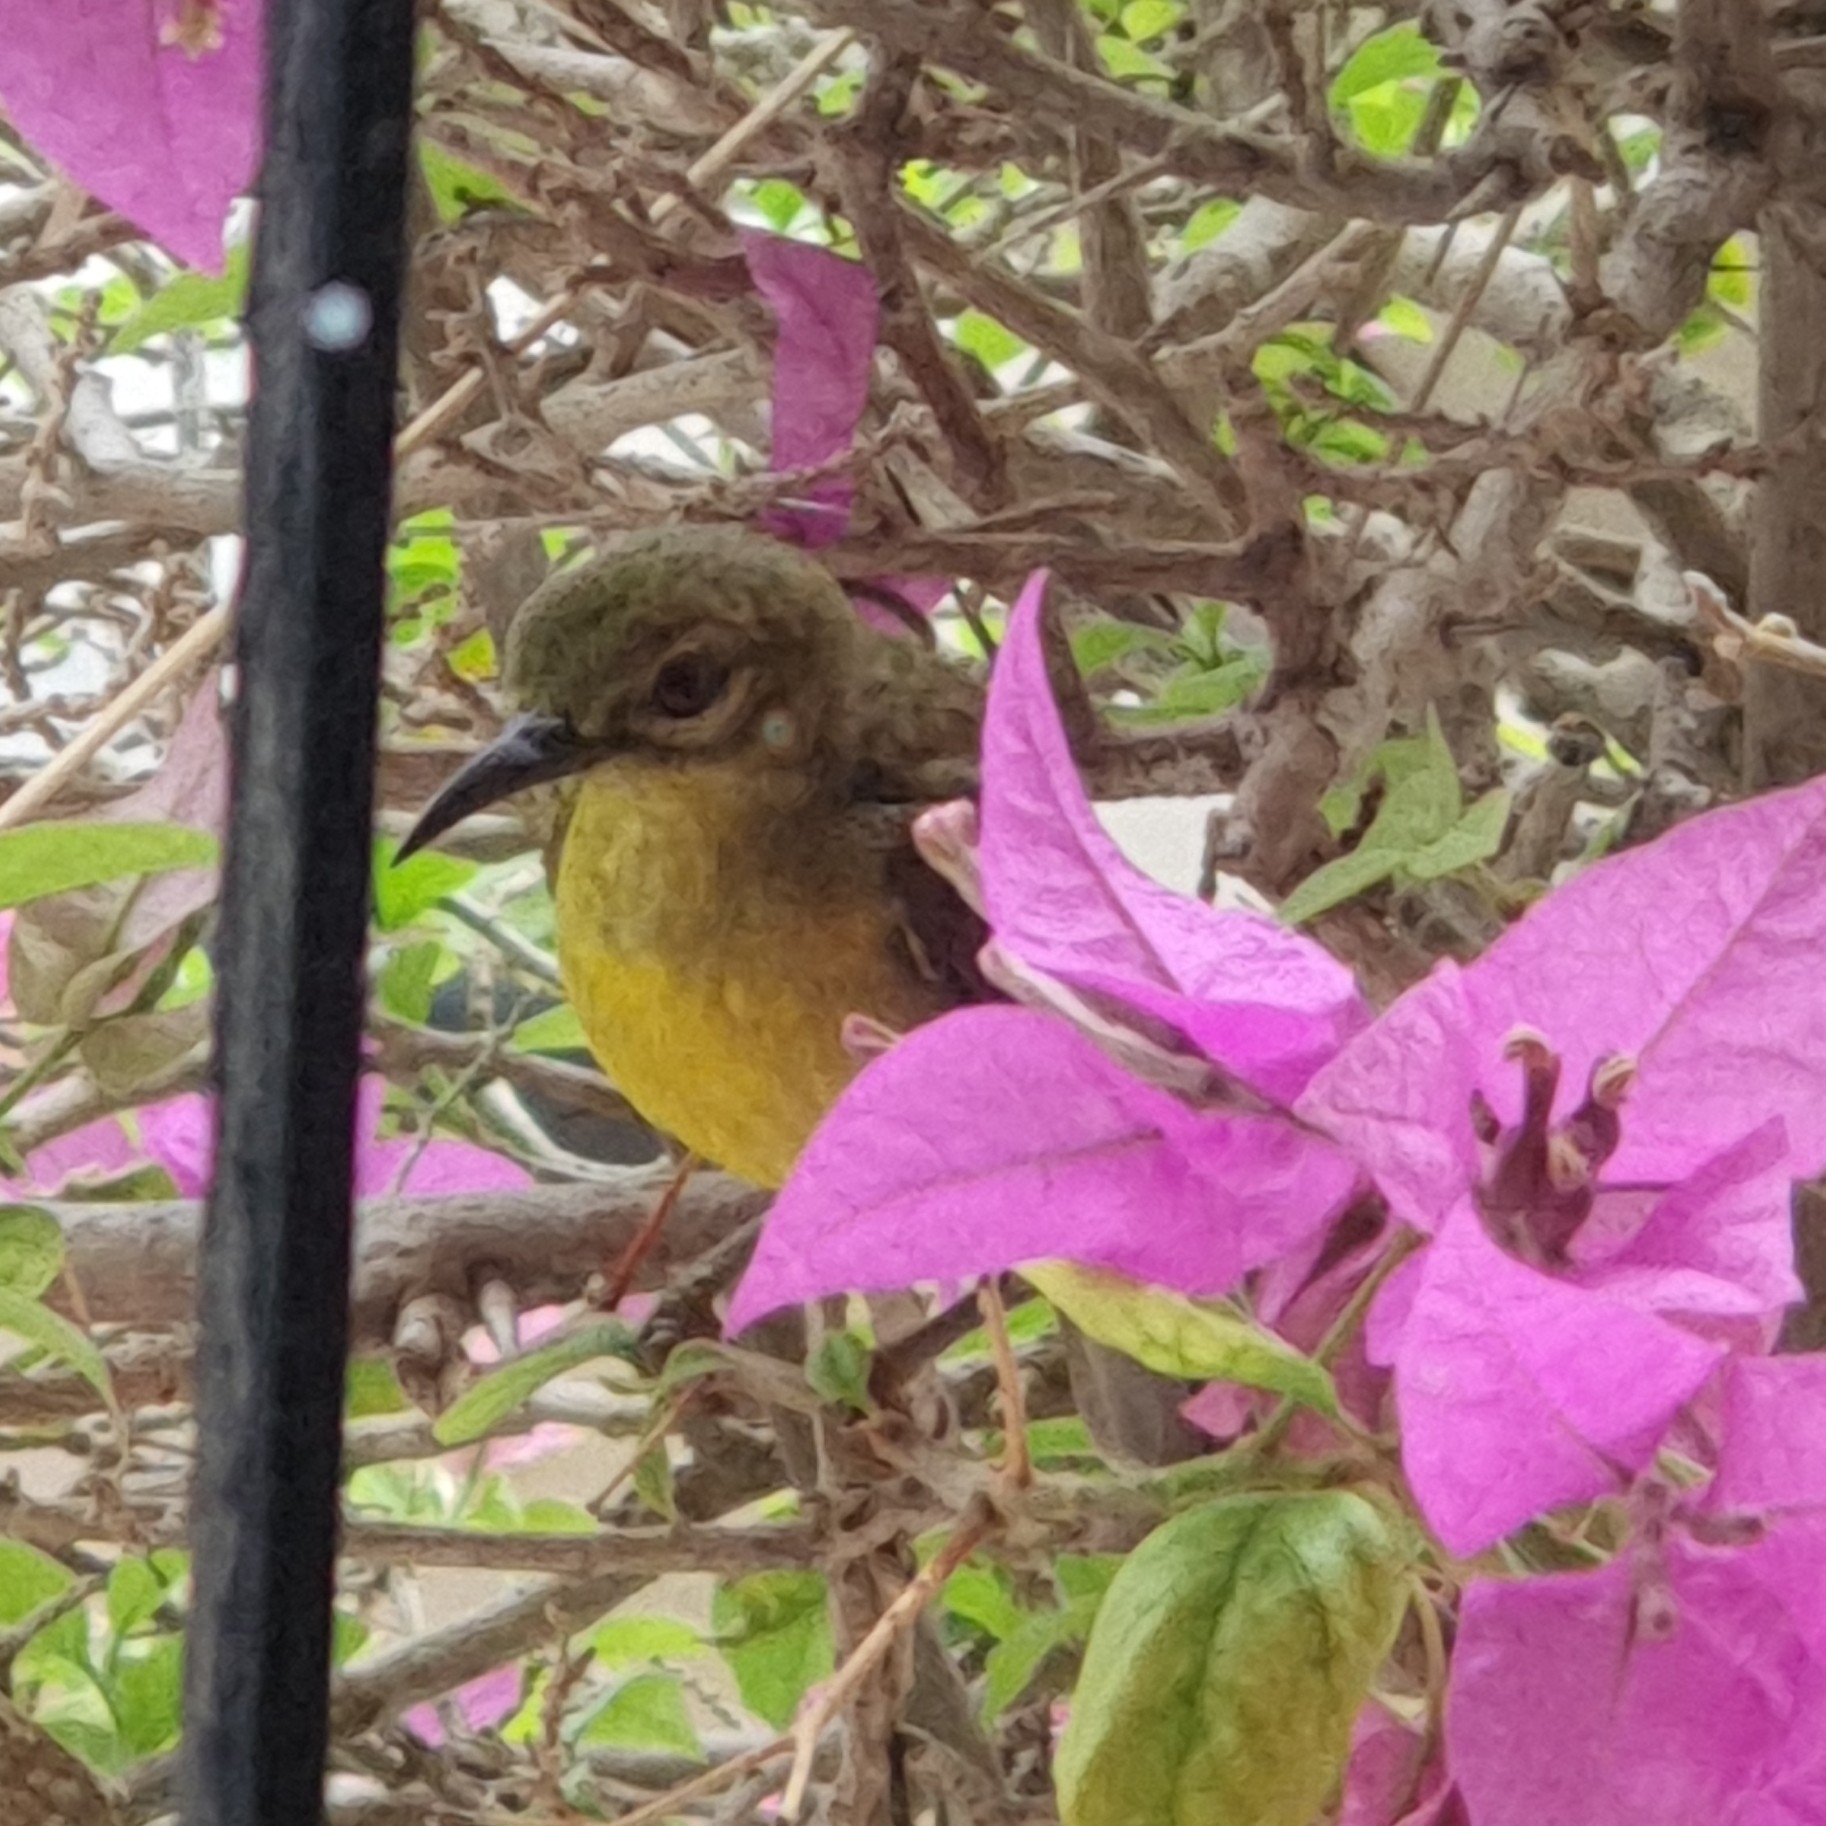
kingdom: Animalia
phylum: Chordata
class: Aves
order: Passeriformes
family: Nectariniidae
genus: Anthreptes
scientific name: Anthreptes malacensis
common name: Brown-throated sunbird
